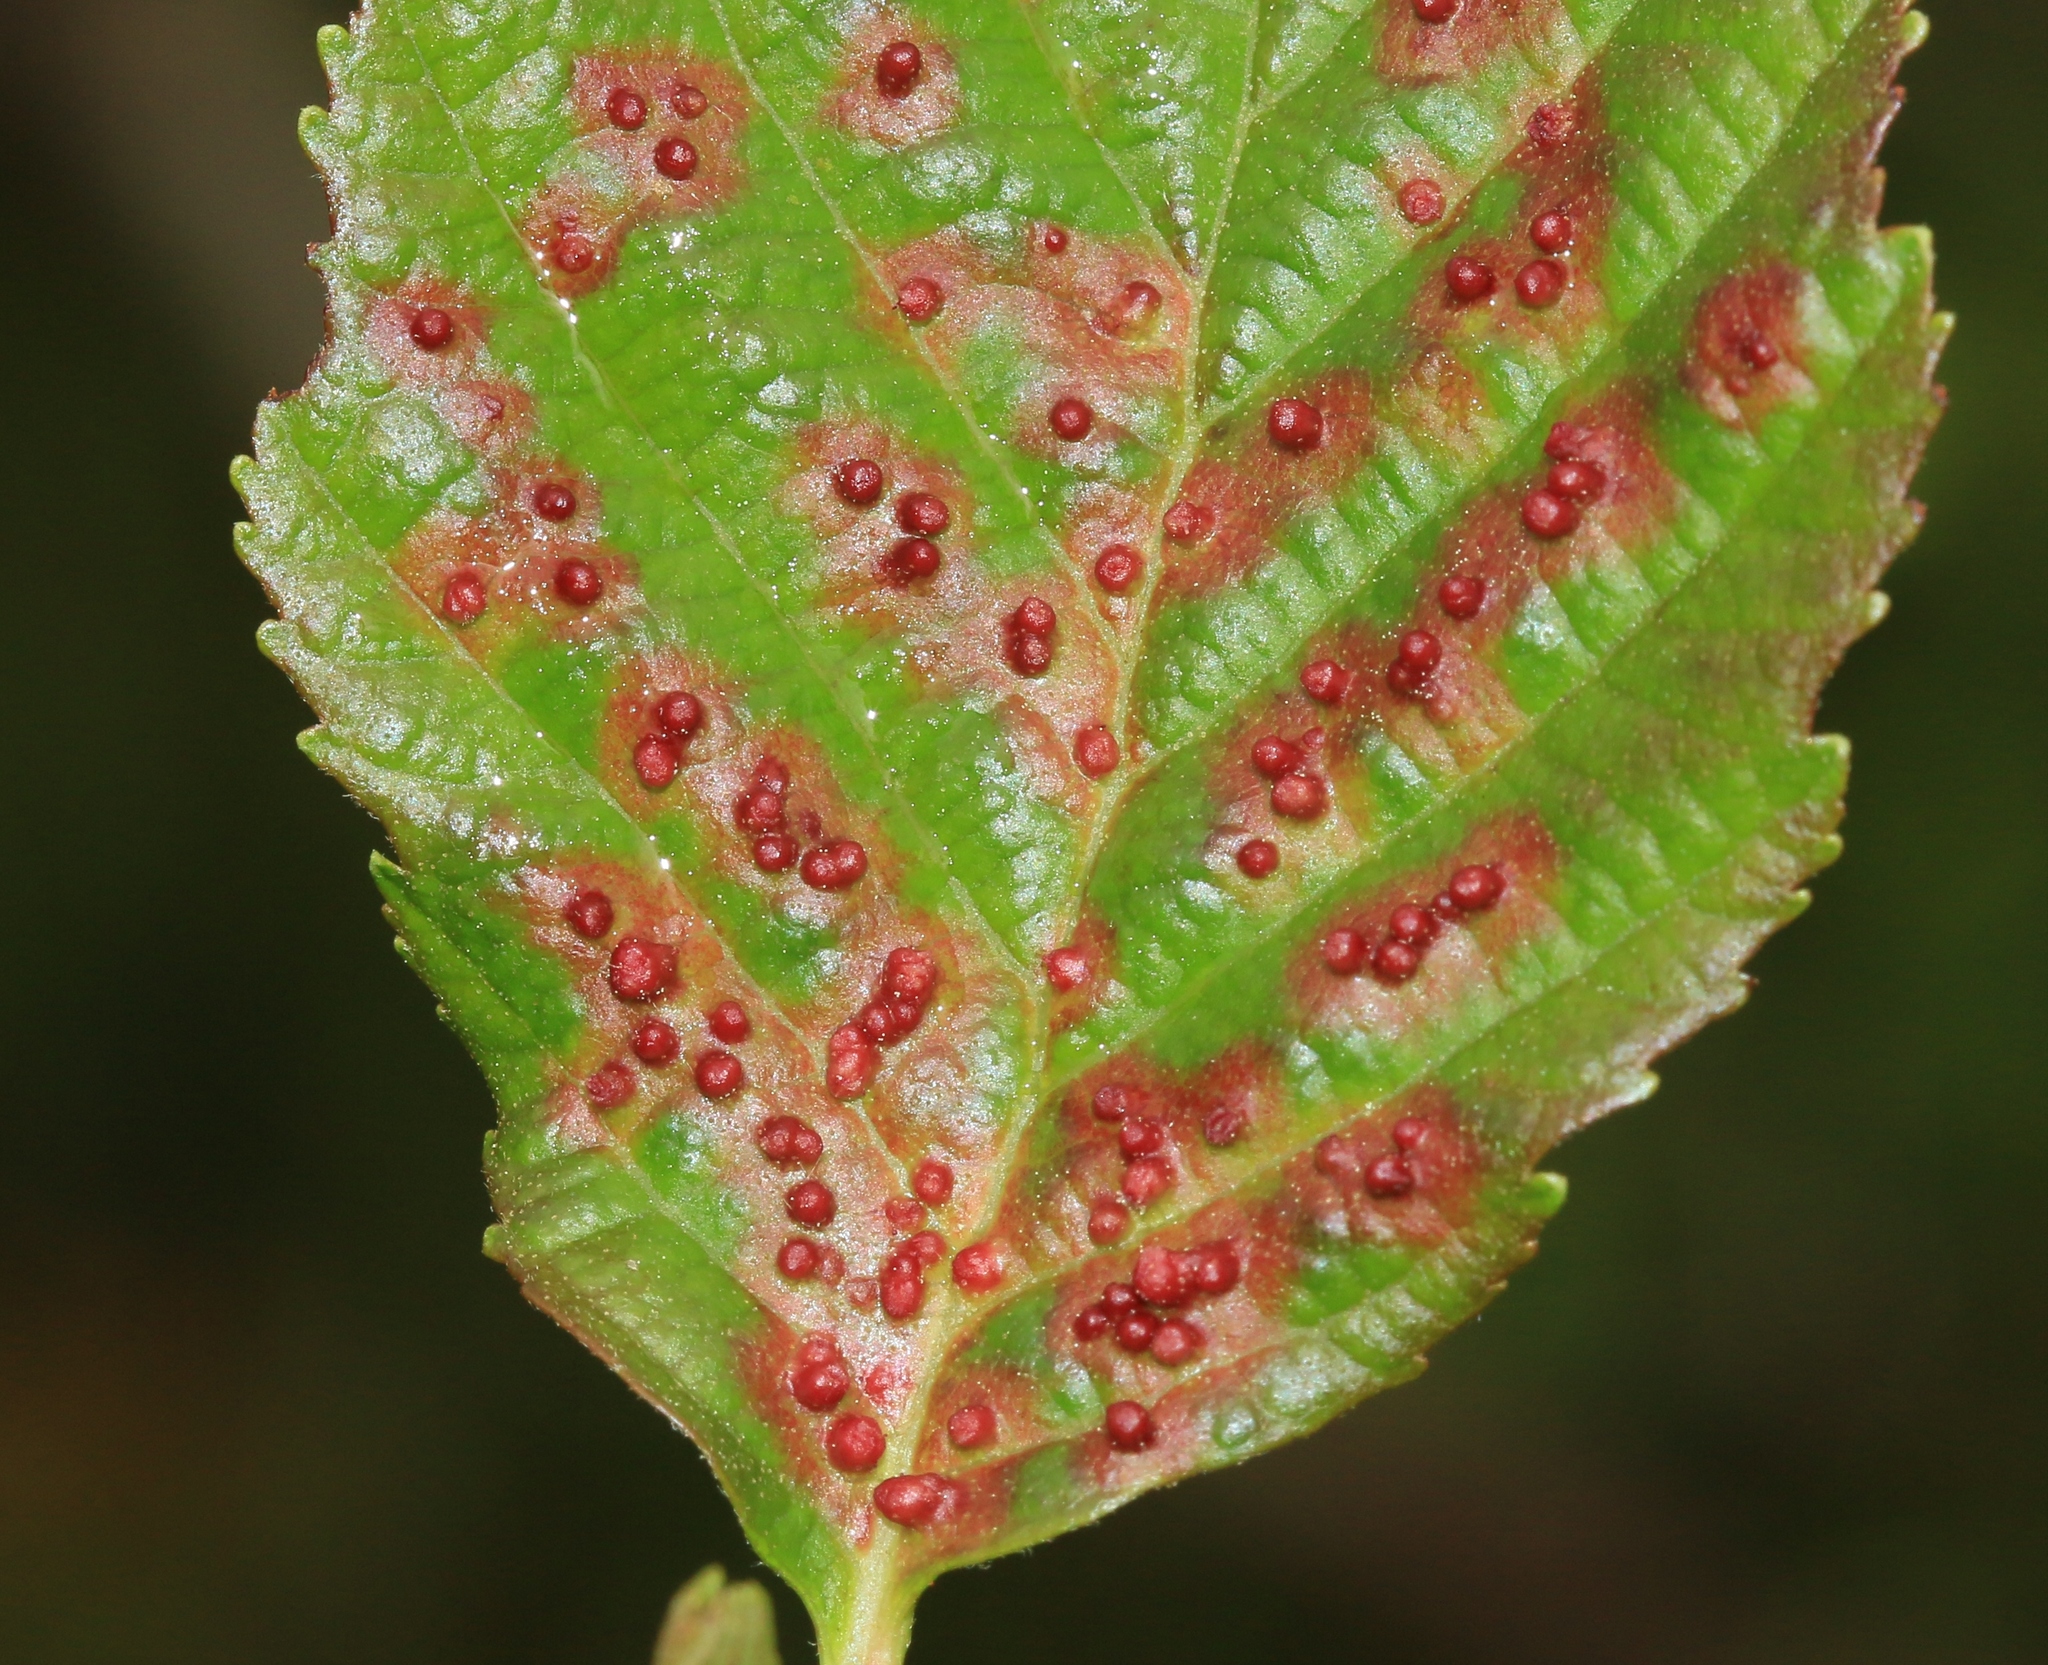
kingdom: Animalia
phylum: Arthropoda
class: Arachnida
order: Trombidiformes
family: Eriophyidae
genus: Eriophyes
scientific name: Eriophyes laevis
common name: Alder leaf gall mite
